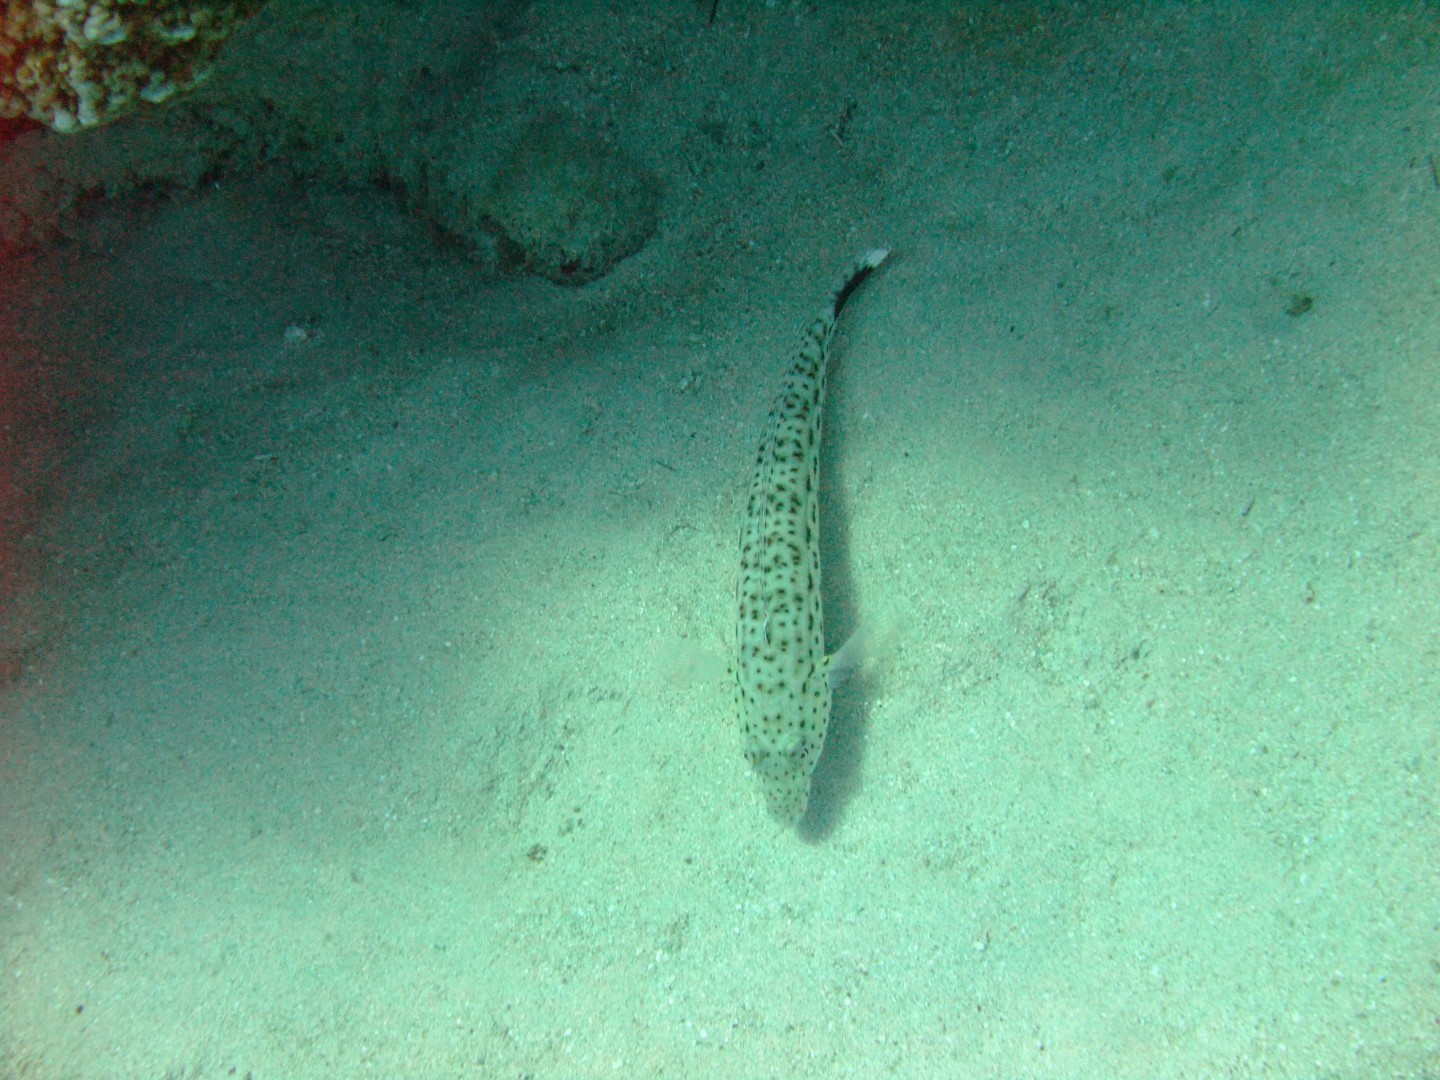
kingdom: Animalia
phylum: Chordata
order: Perciformes
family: Pinguipedidae
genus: Parapercis
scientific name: Parapercis hexophtalma
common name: Speckled sandperch
